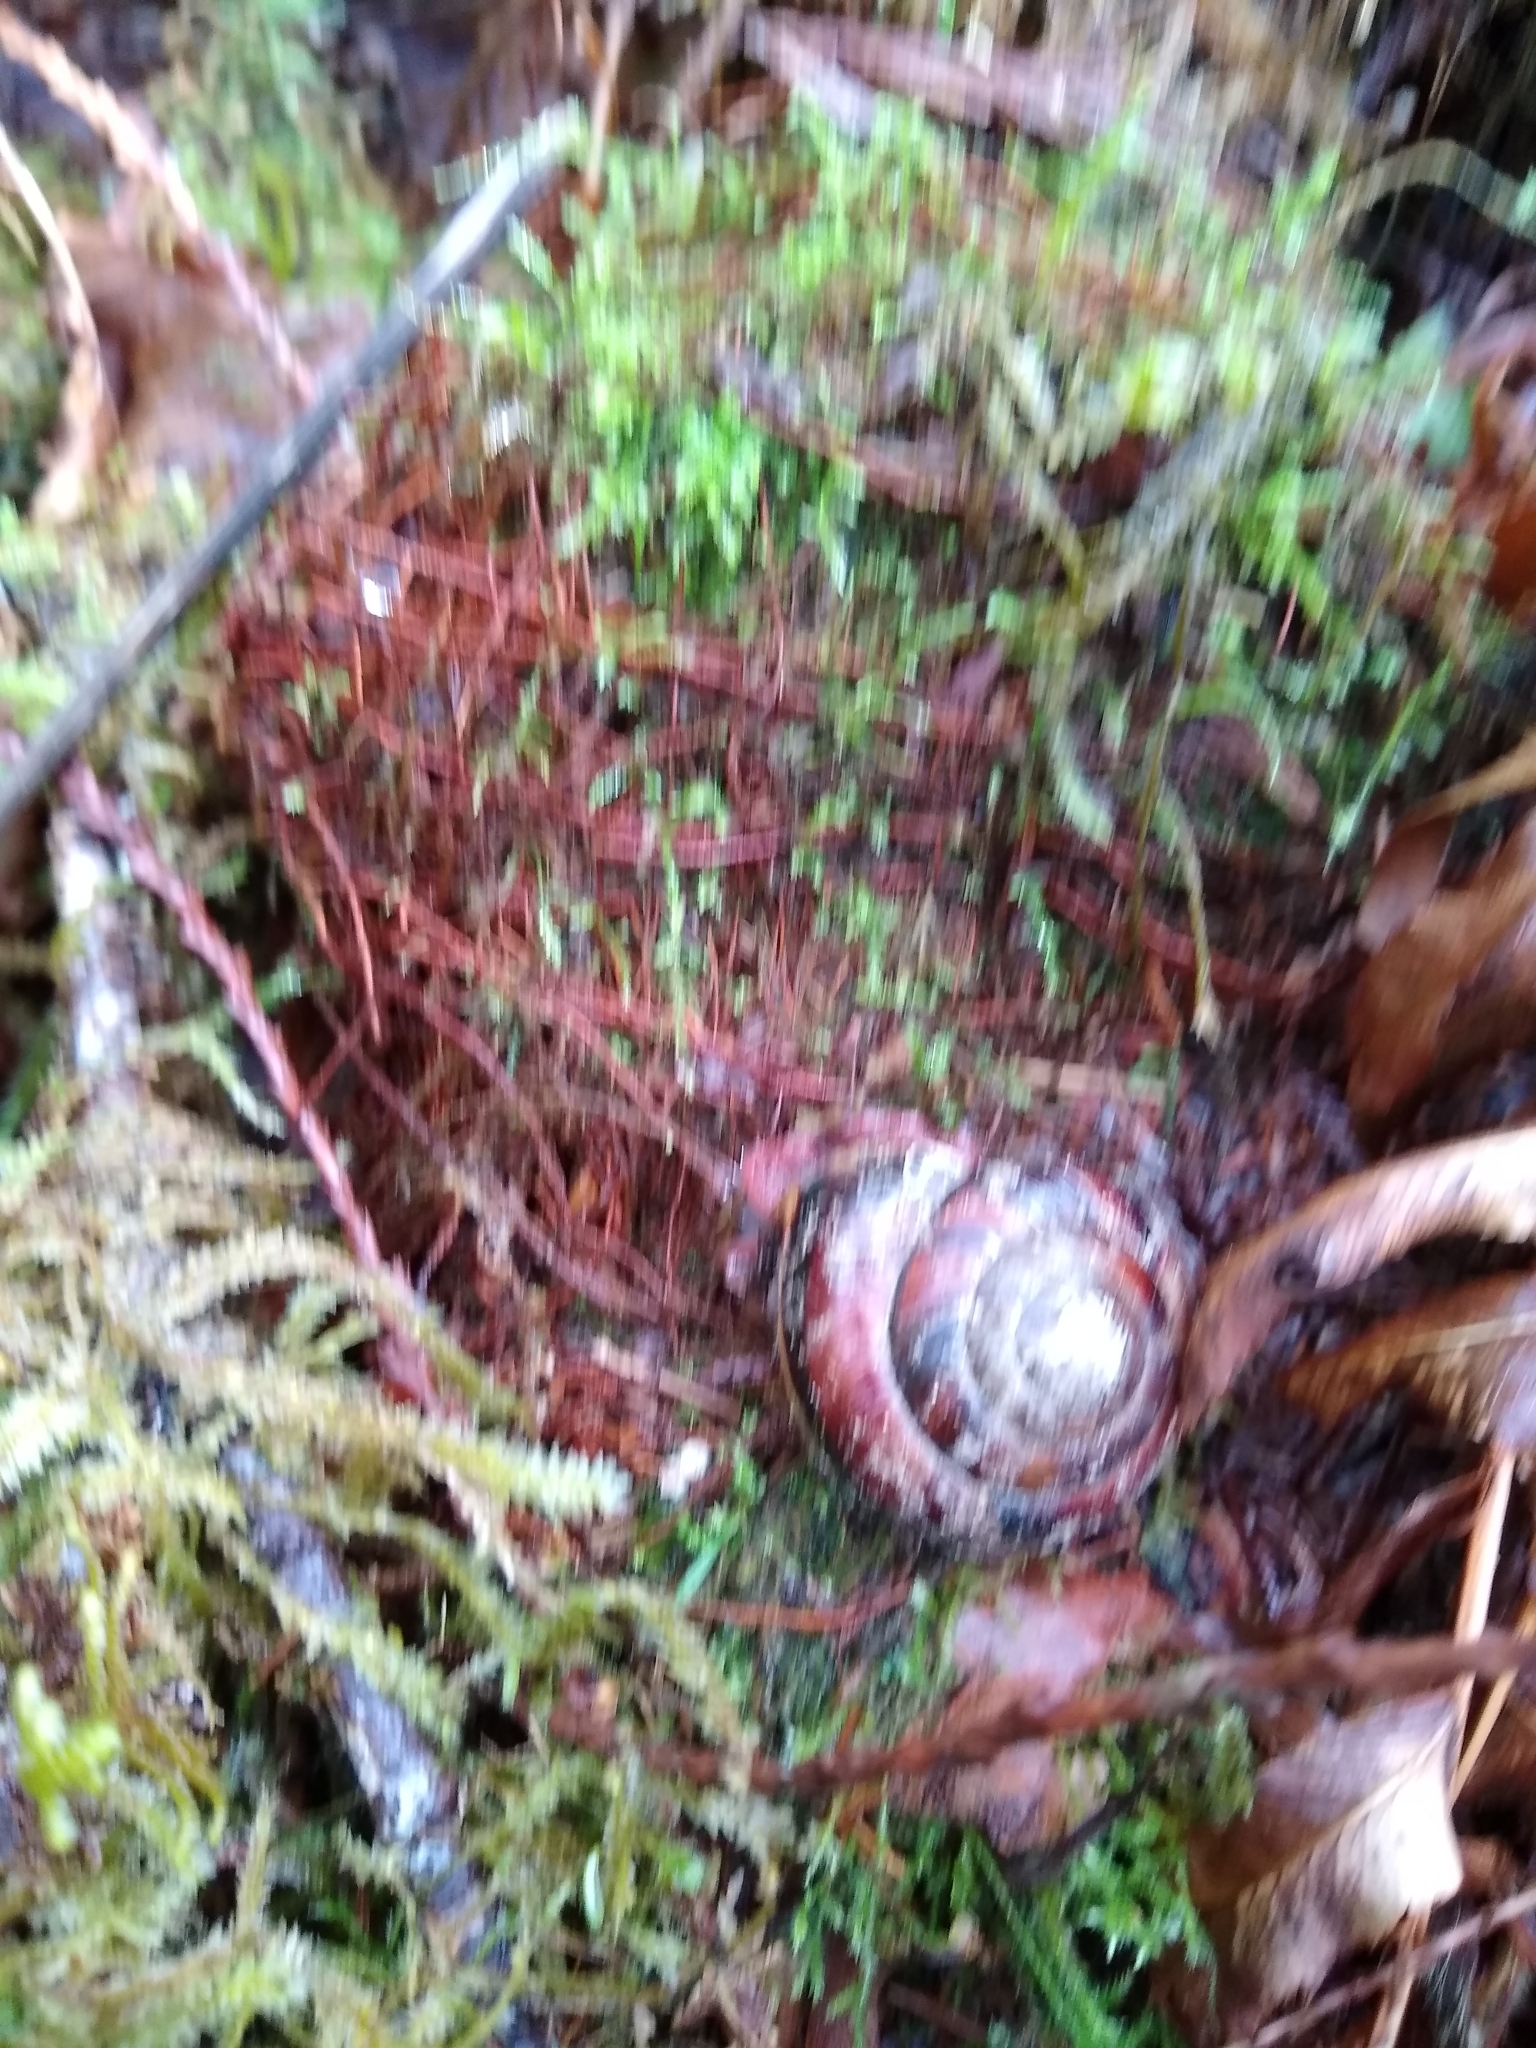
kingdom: Animalia
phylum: Mollusca
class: Gastropoda
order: Stylommatophora
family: Xanthonychidae
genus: Monadenia
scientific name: Monadenia fidelis
